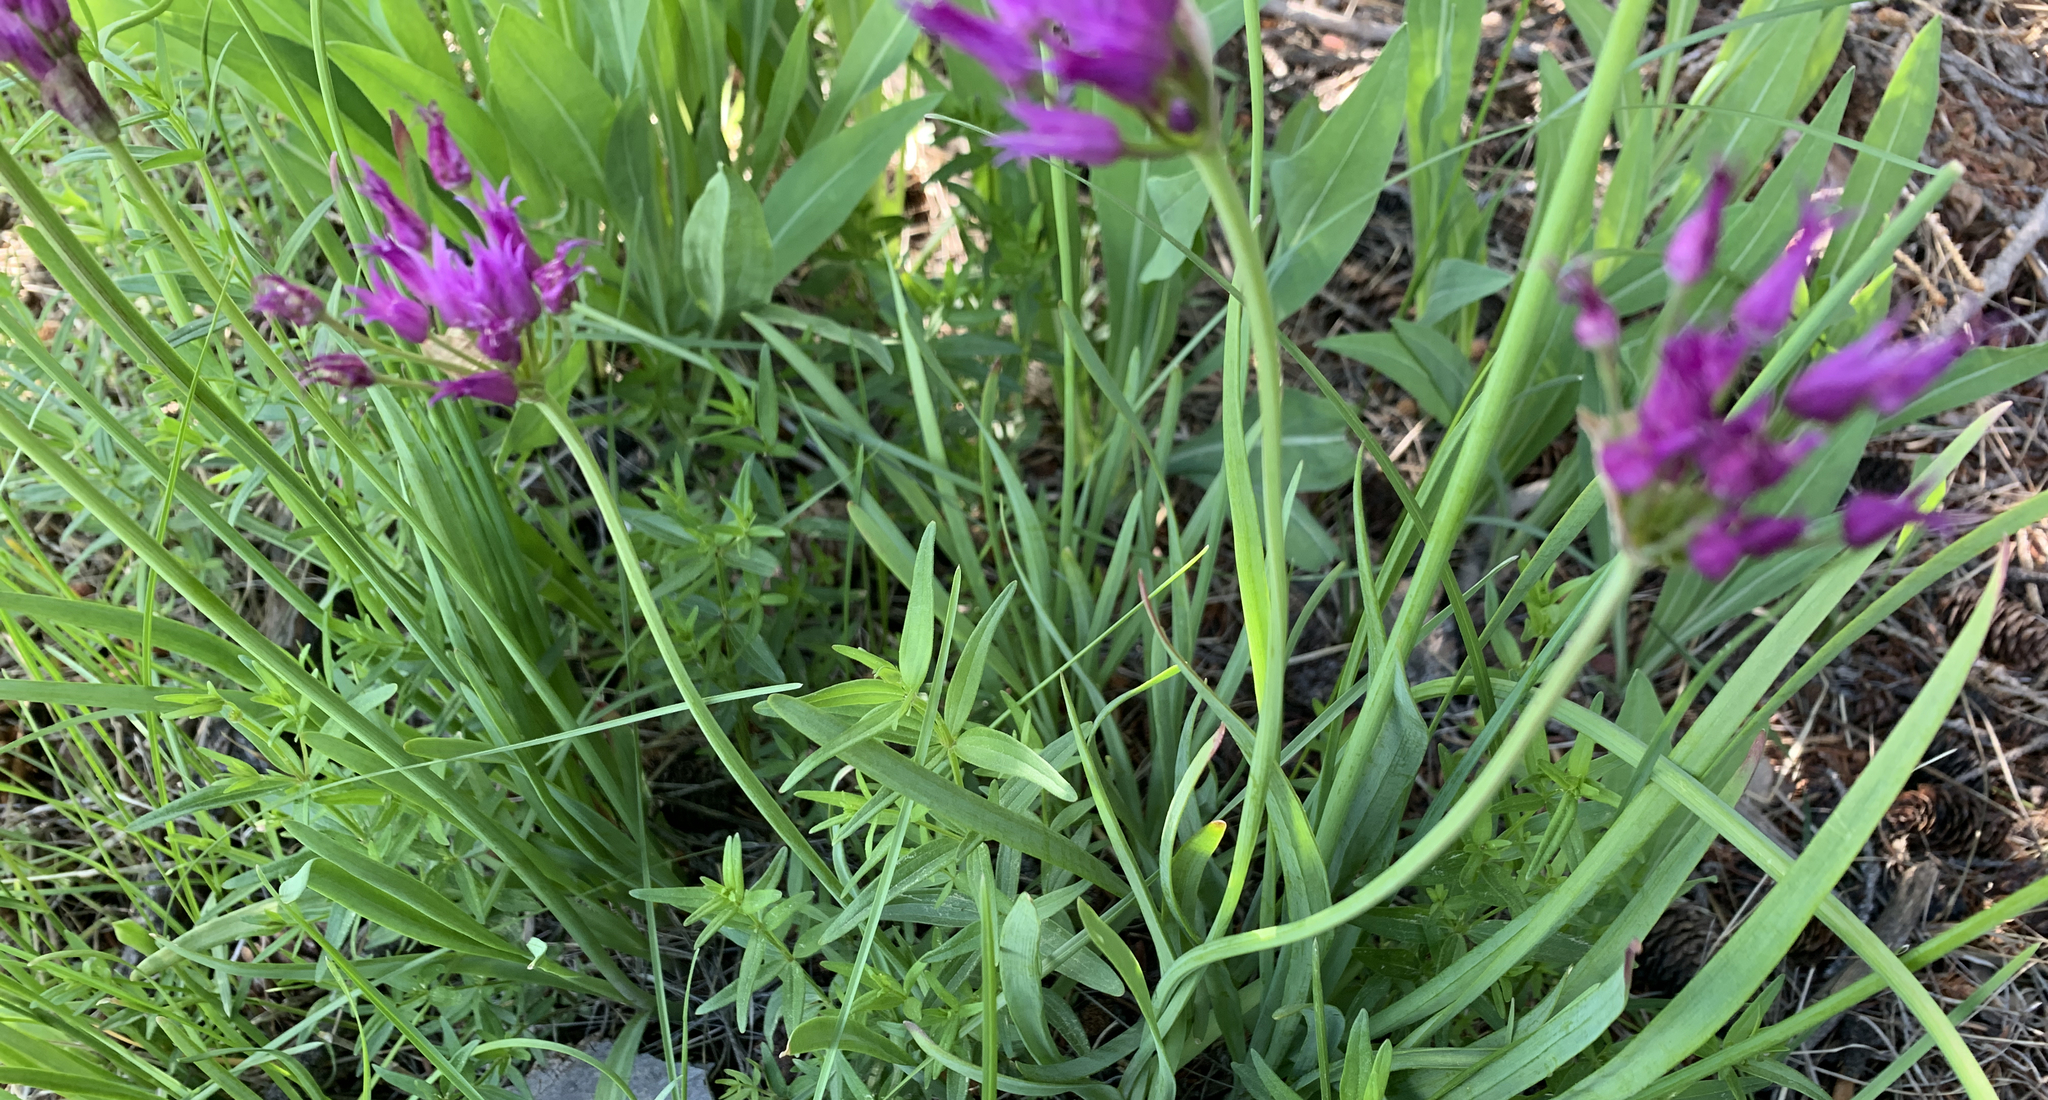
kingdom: Plantae
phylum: Tracheophyta
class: Liliopsida
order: Asparagales
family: Amaryllidaceae
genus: Allium
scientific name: Allium brevistylum
